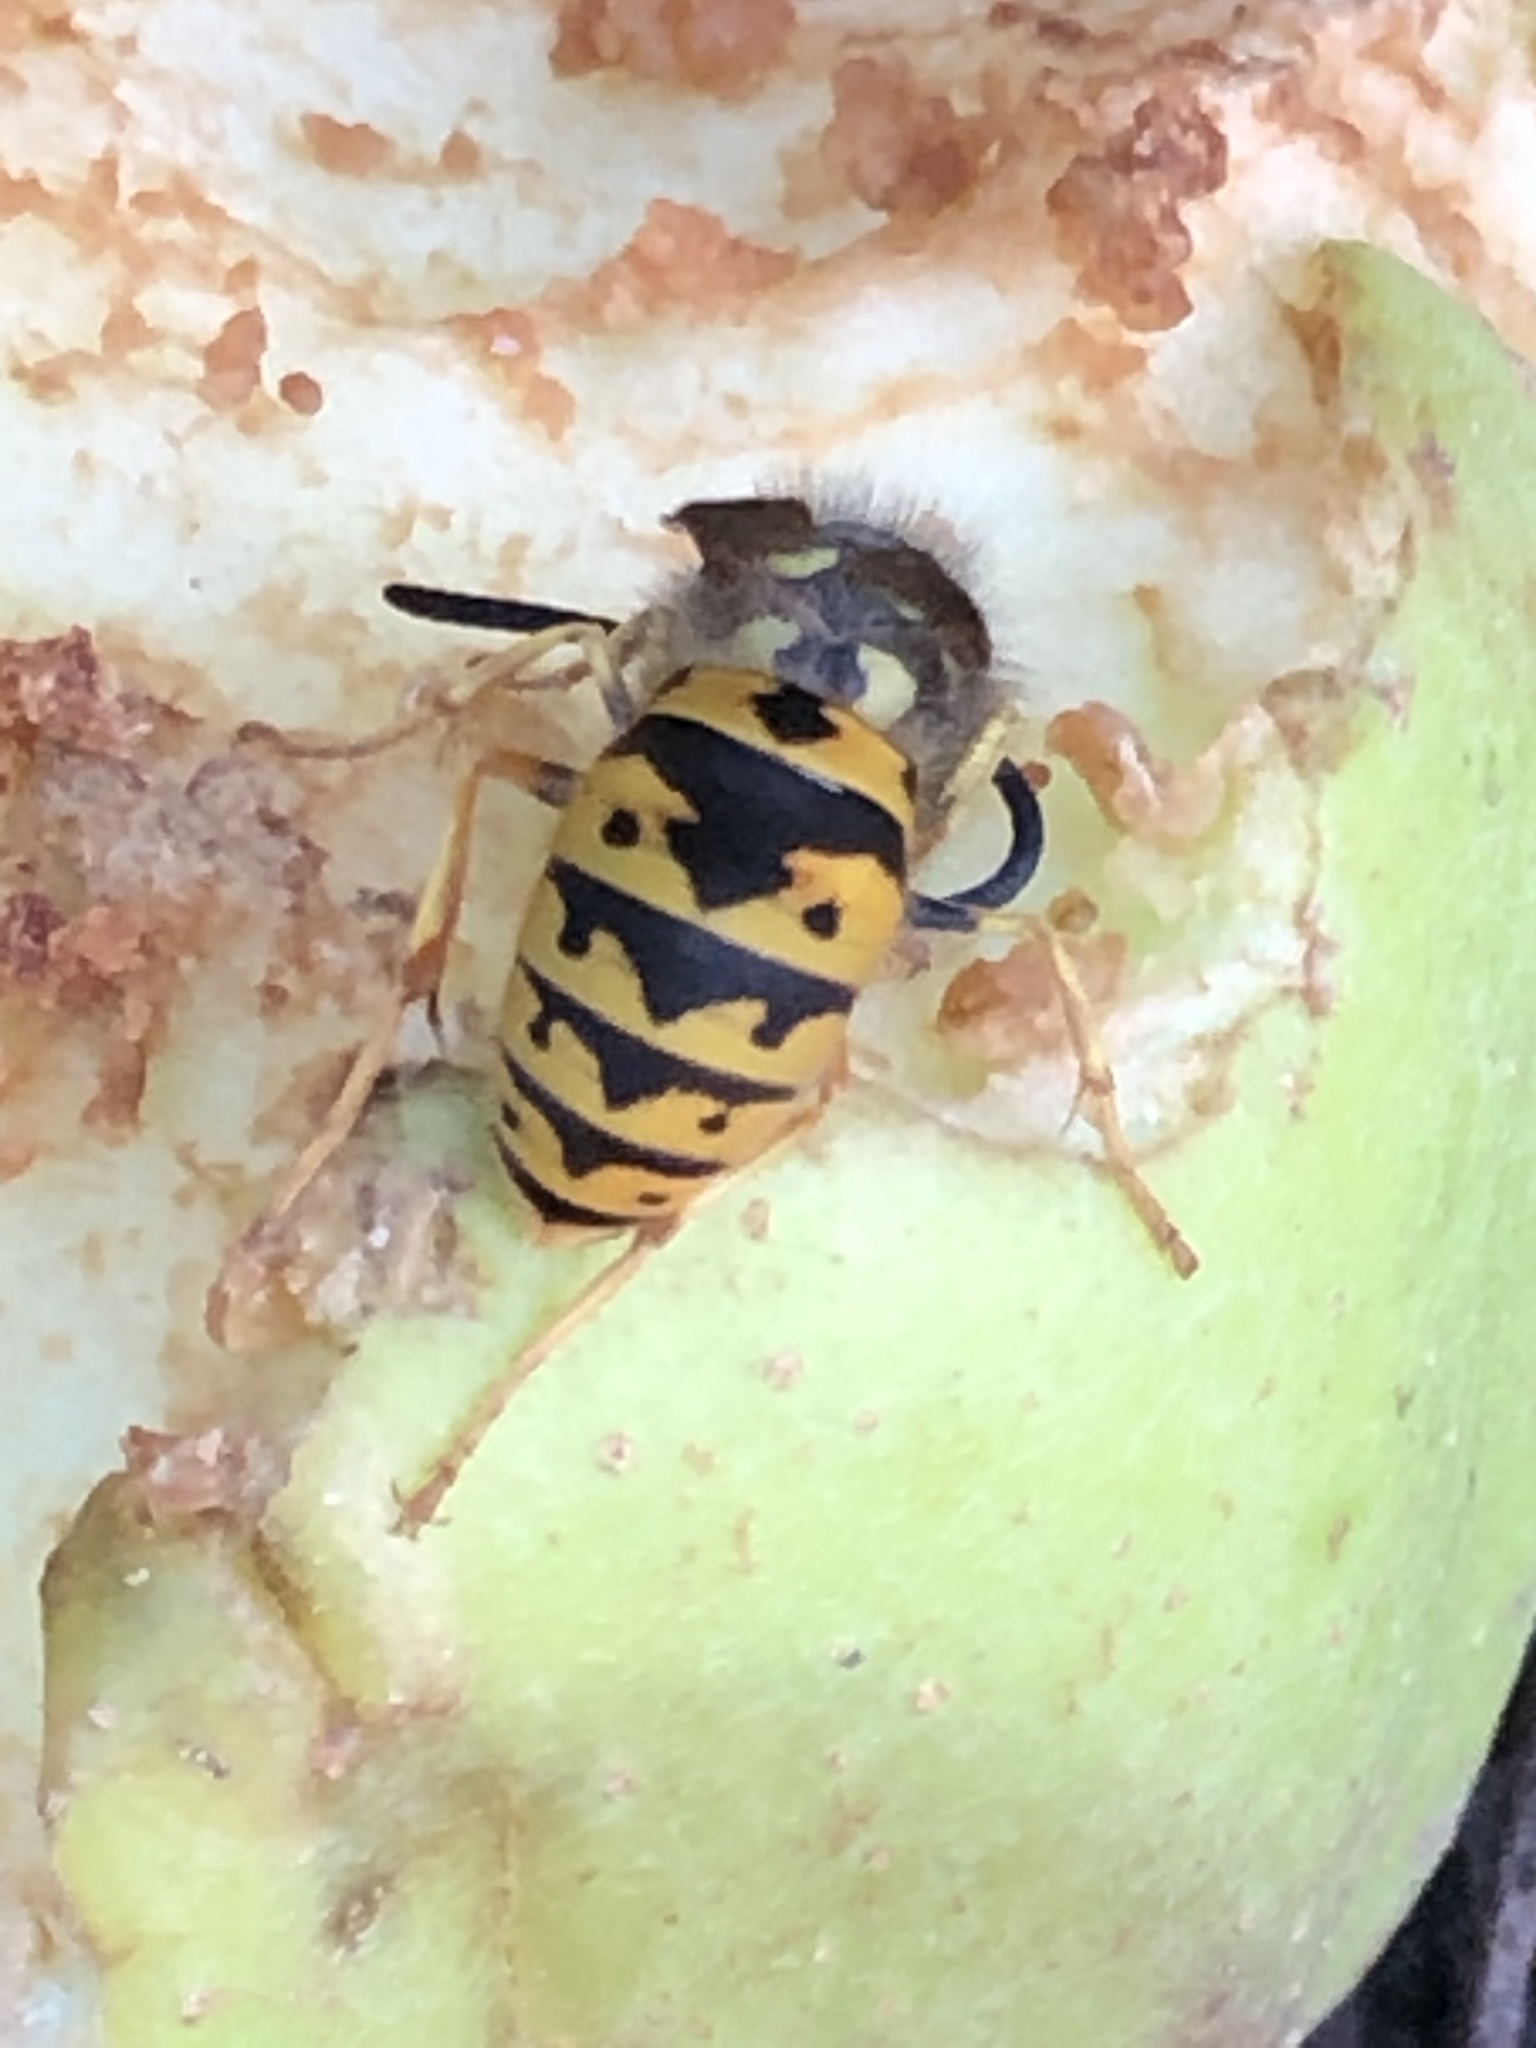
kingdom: Animalia
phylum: Arthropoda
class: Insecta
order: Hymenoptera
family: Vespidae
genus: Vespula
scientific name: Vespula germanica
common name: German wasp
